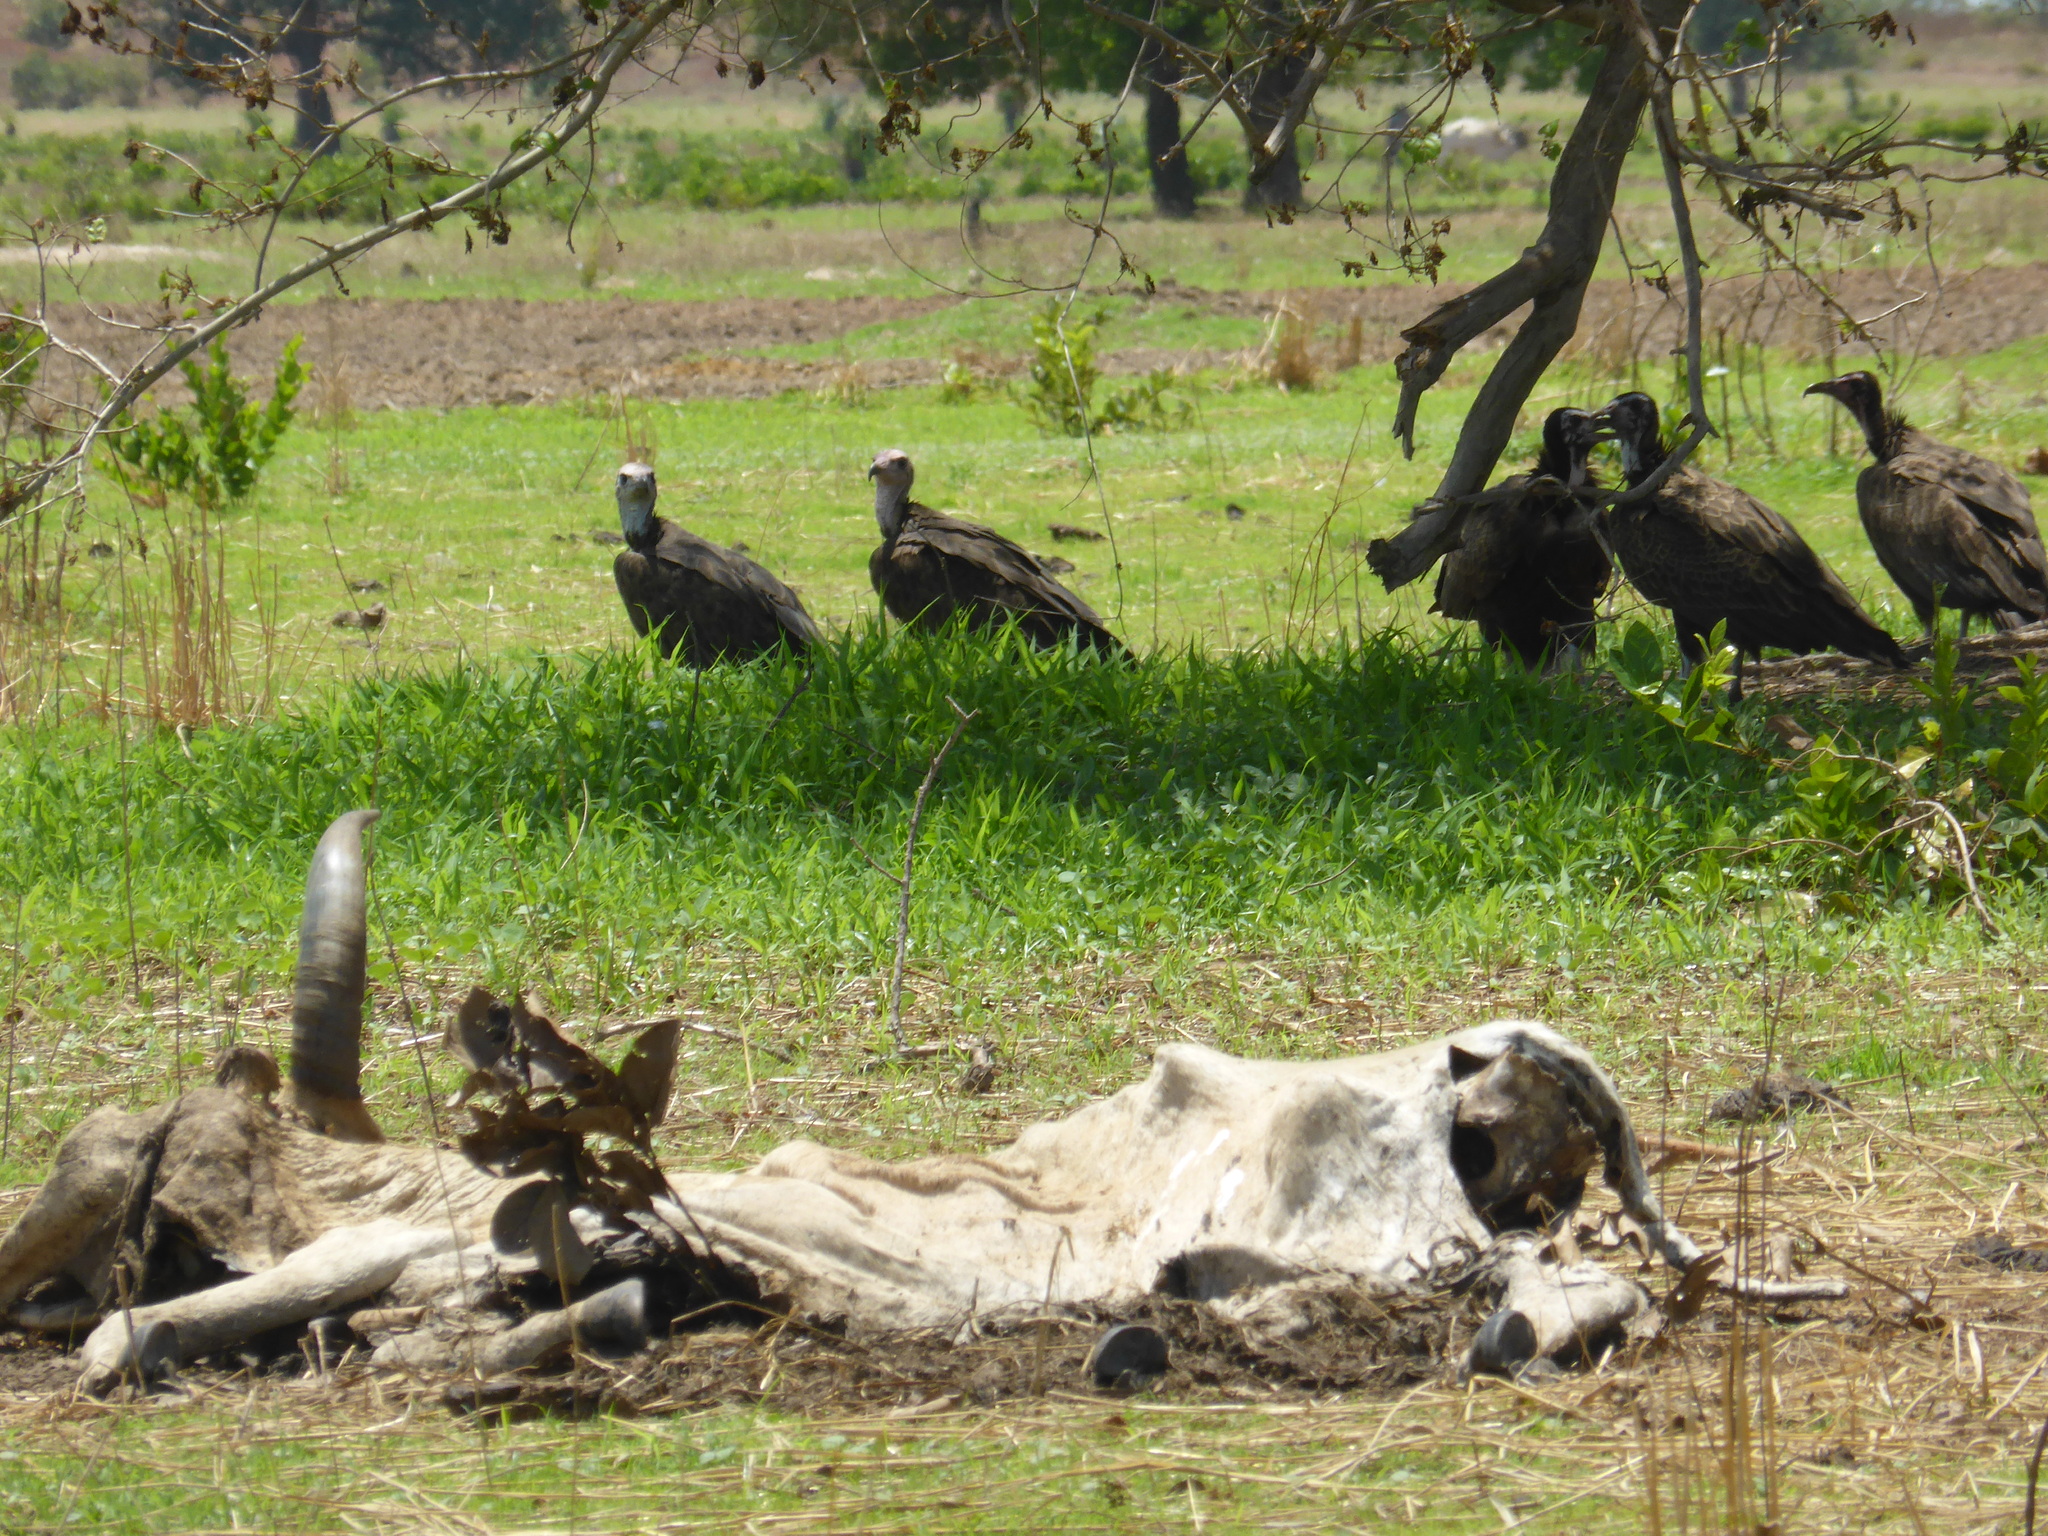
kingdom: Animalia
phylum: Chordata
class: Aves
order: Accipitriformes
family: Accipitridae
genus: Necrosyrtes
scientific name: Necrosyrtes monachus
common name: Hooded vulture
